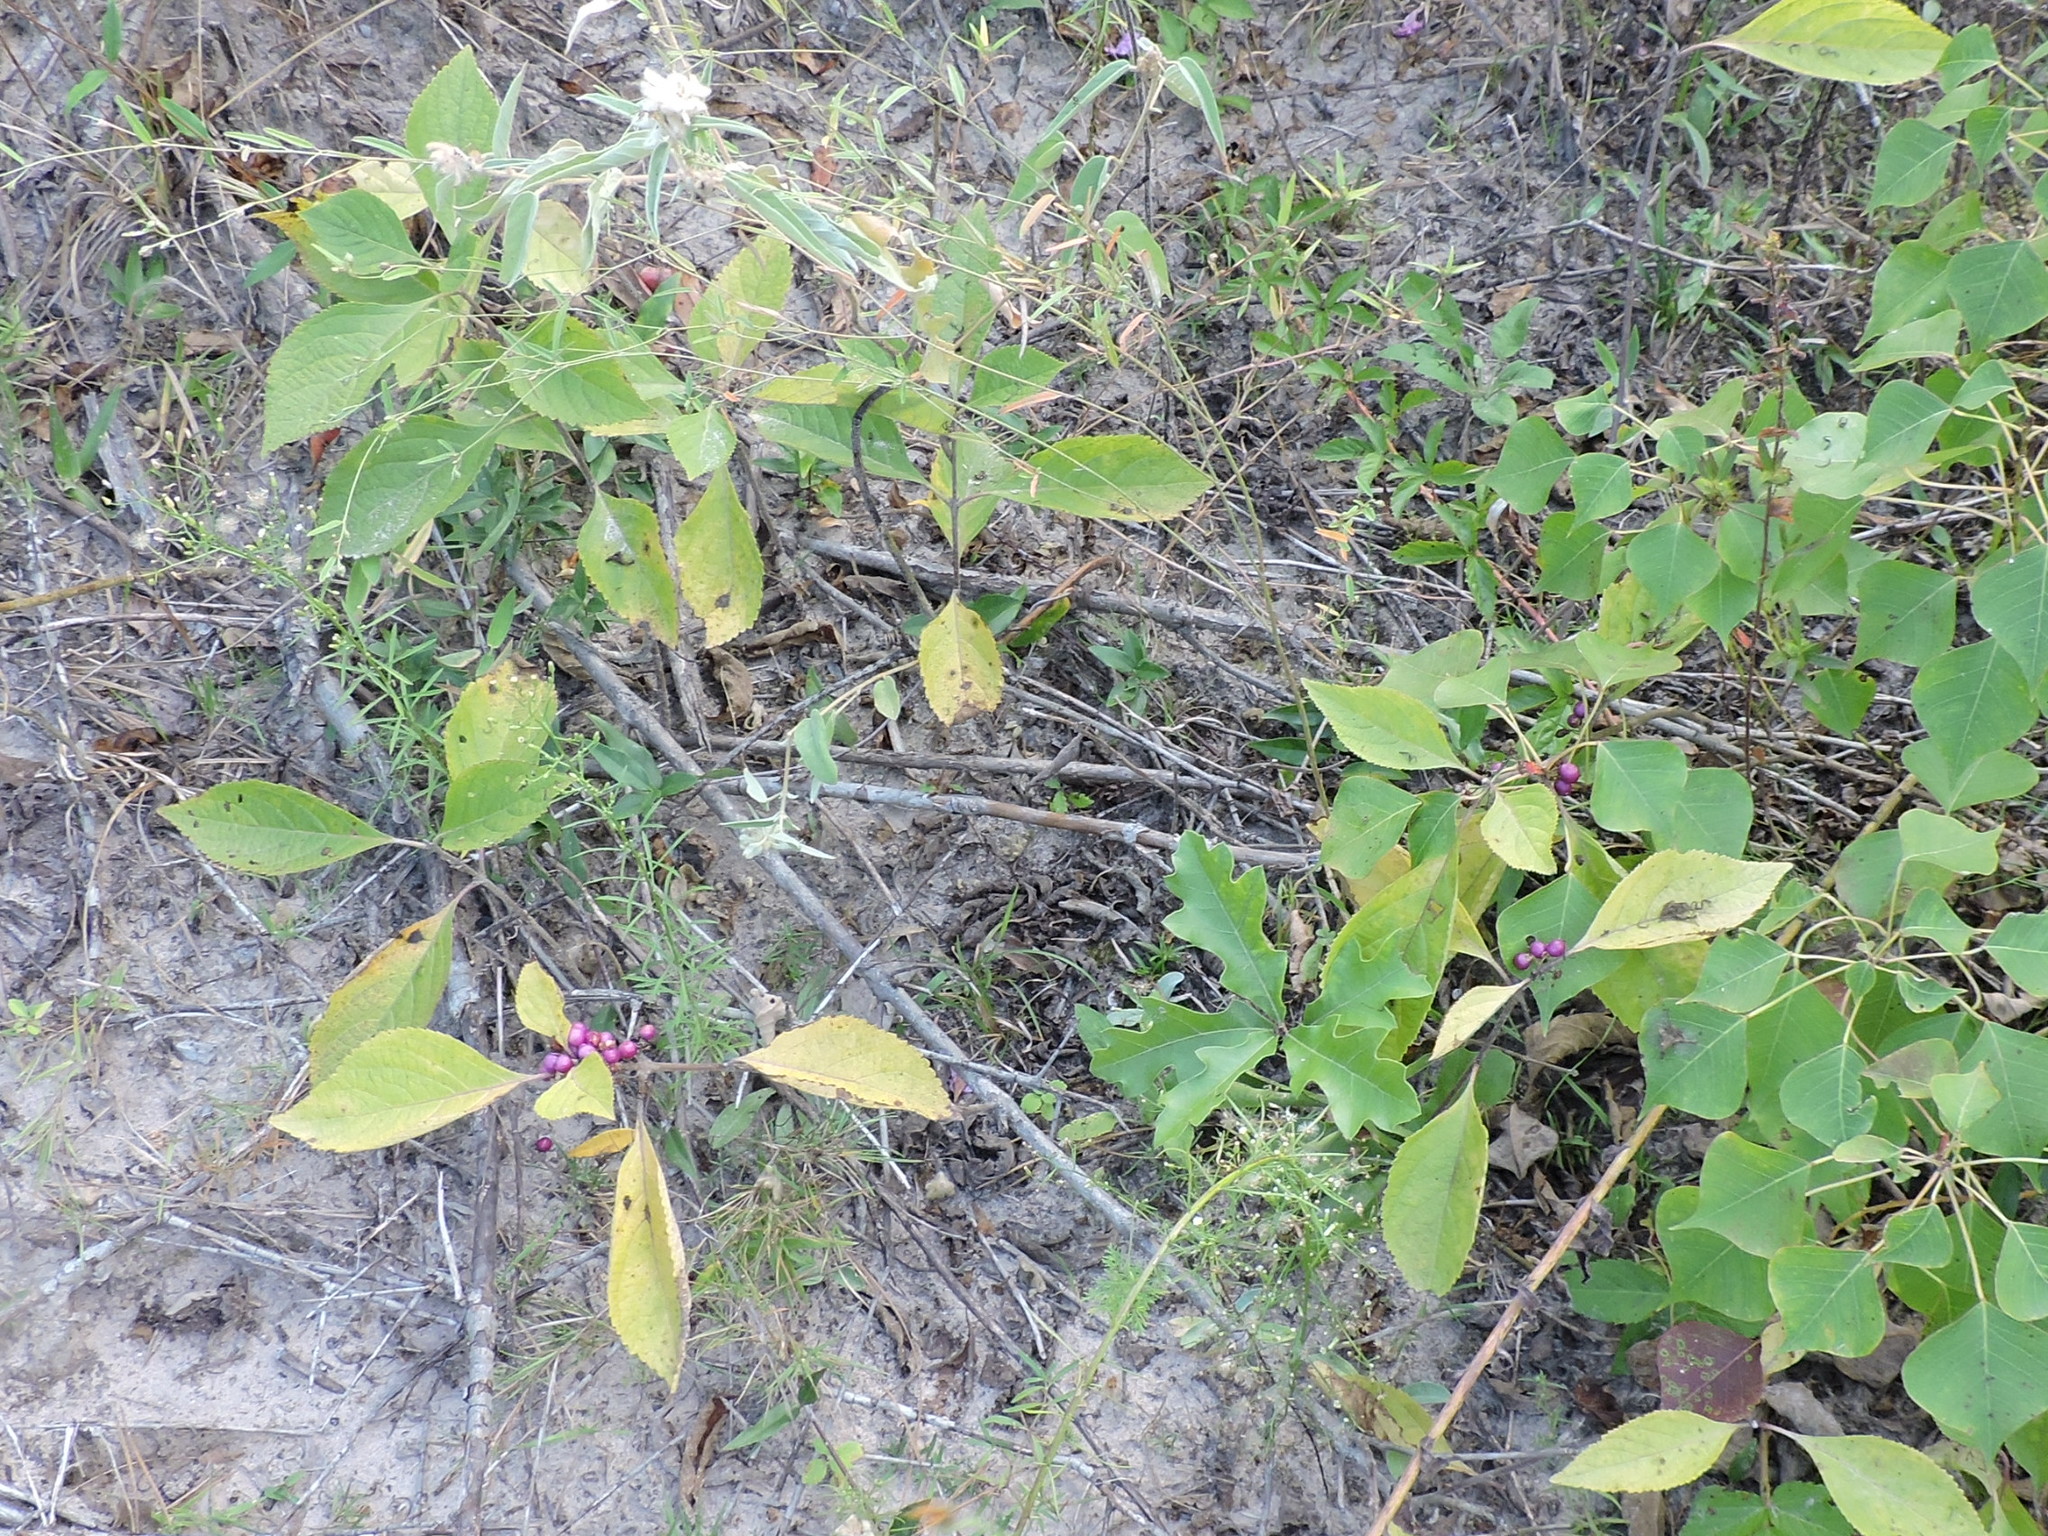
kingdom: Plantae
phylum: Tracheophyta
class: Magnoliopsida
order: Lamiales
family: Lamiaceae
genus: Callicarpa
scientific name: Callicarpa americana
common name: American beautyberry
